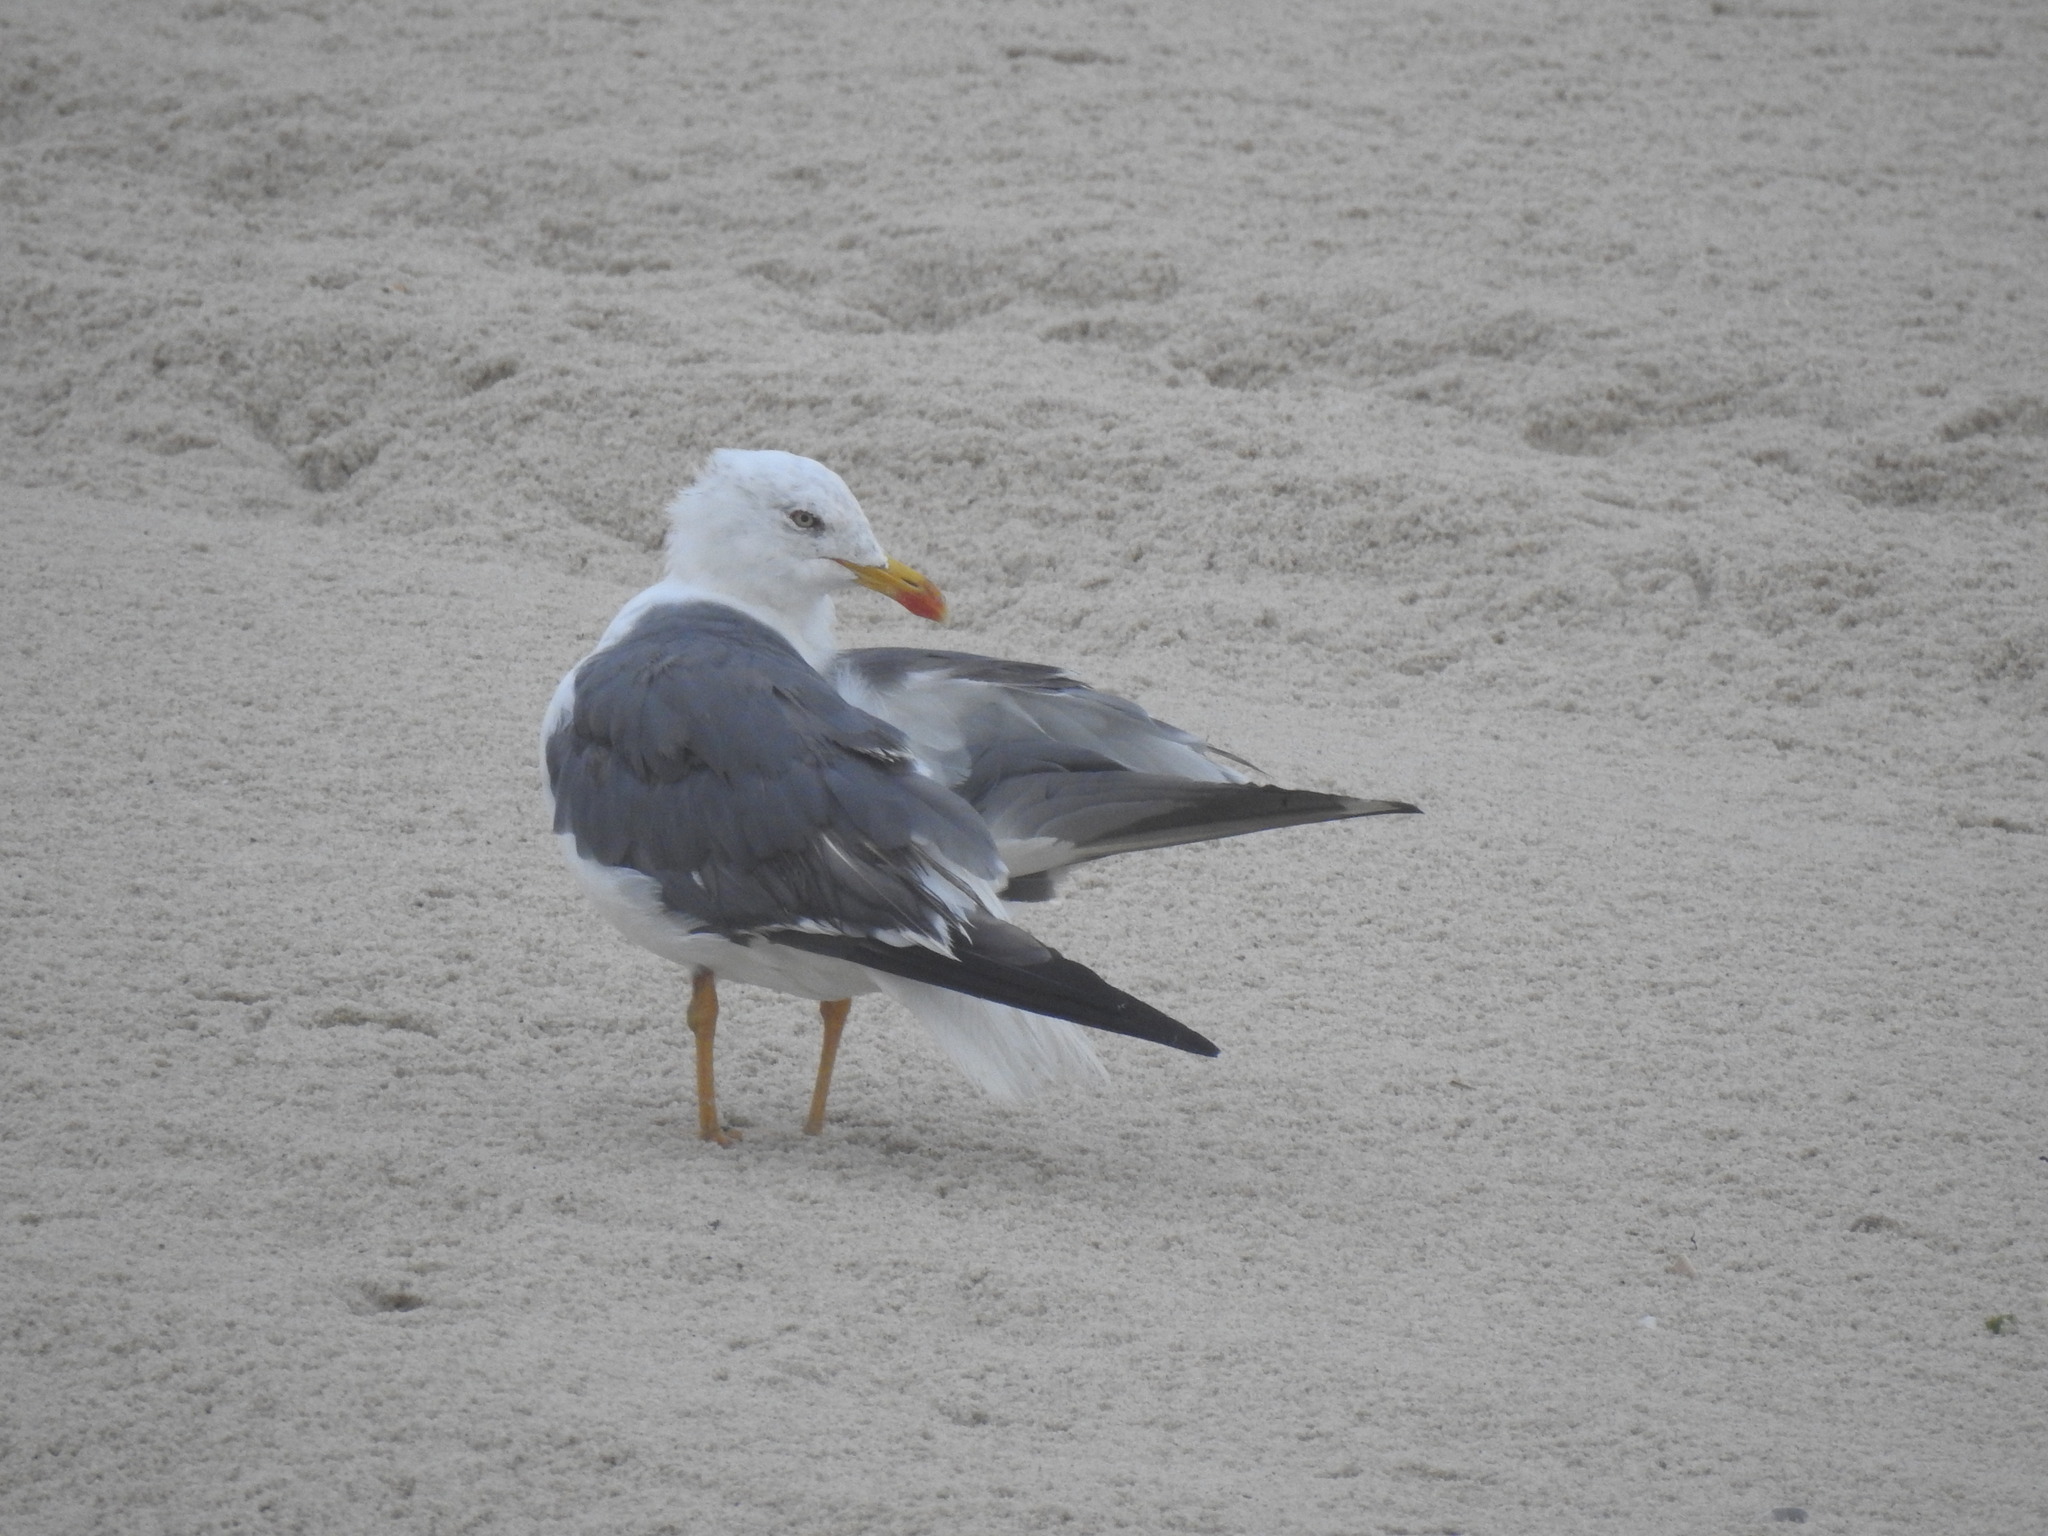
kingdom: Animalia
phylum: Chordata
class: Aves
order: Charadriiformes
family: Laridae
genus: Larus
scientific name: Larus fuscus
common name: Lesser black-backed gull
